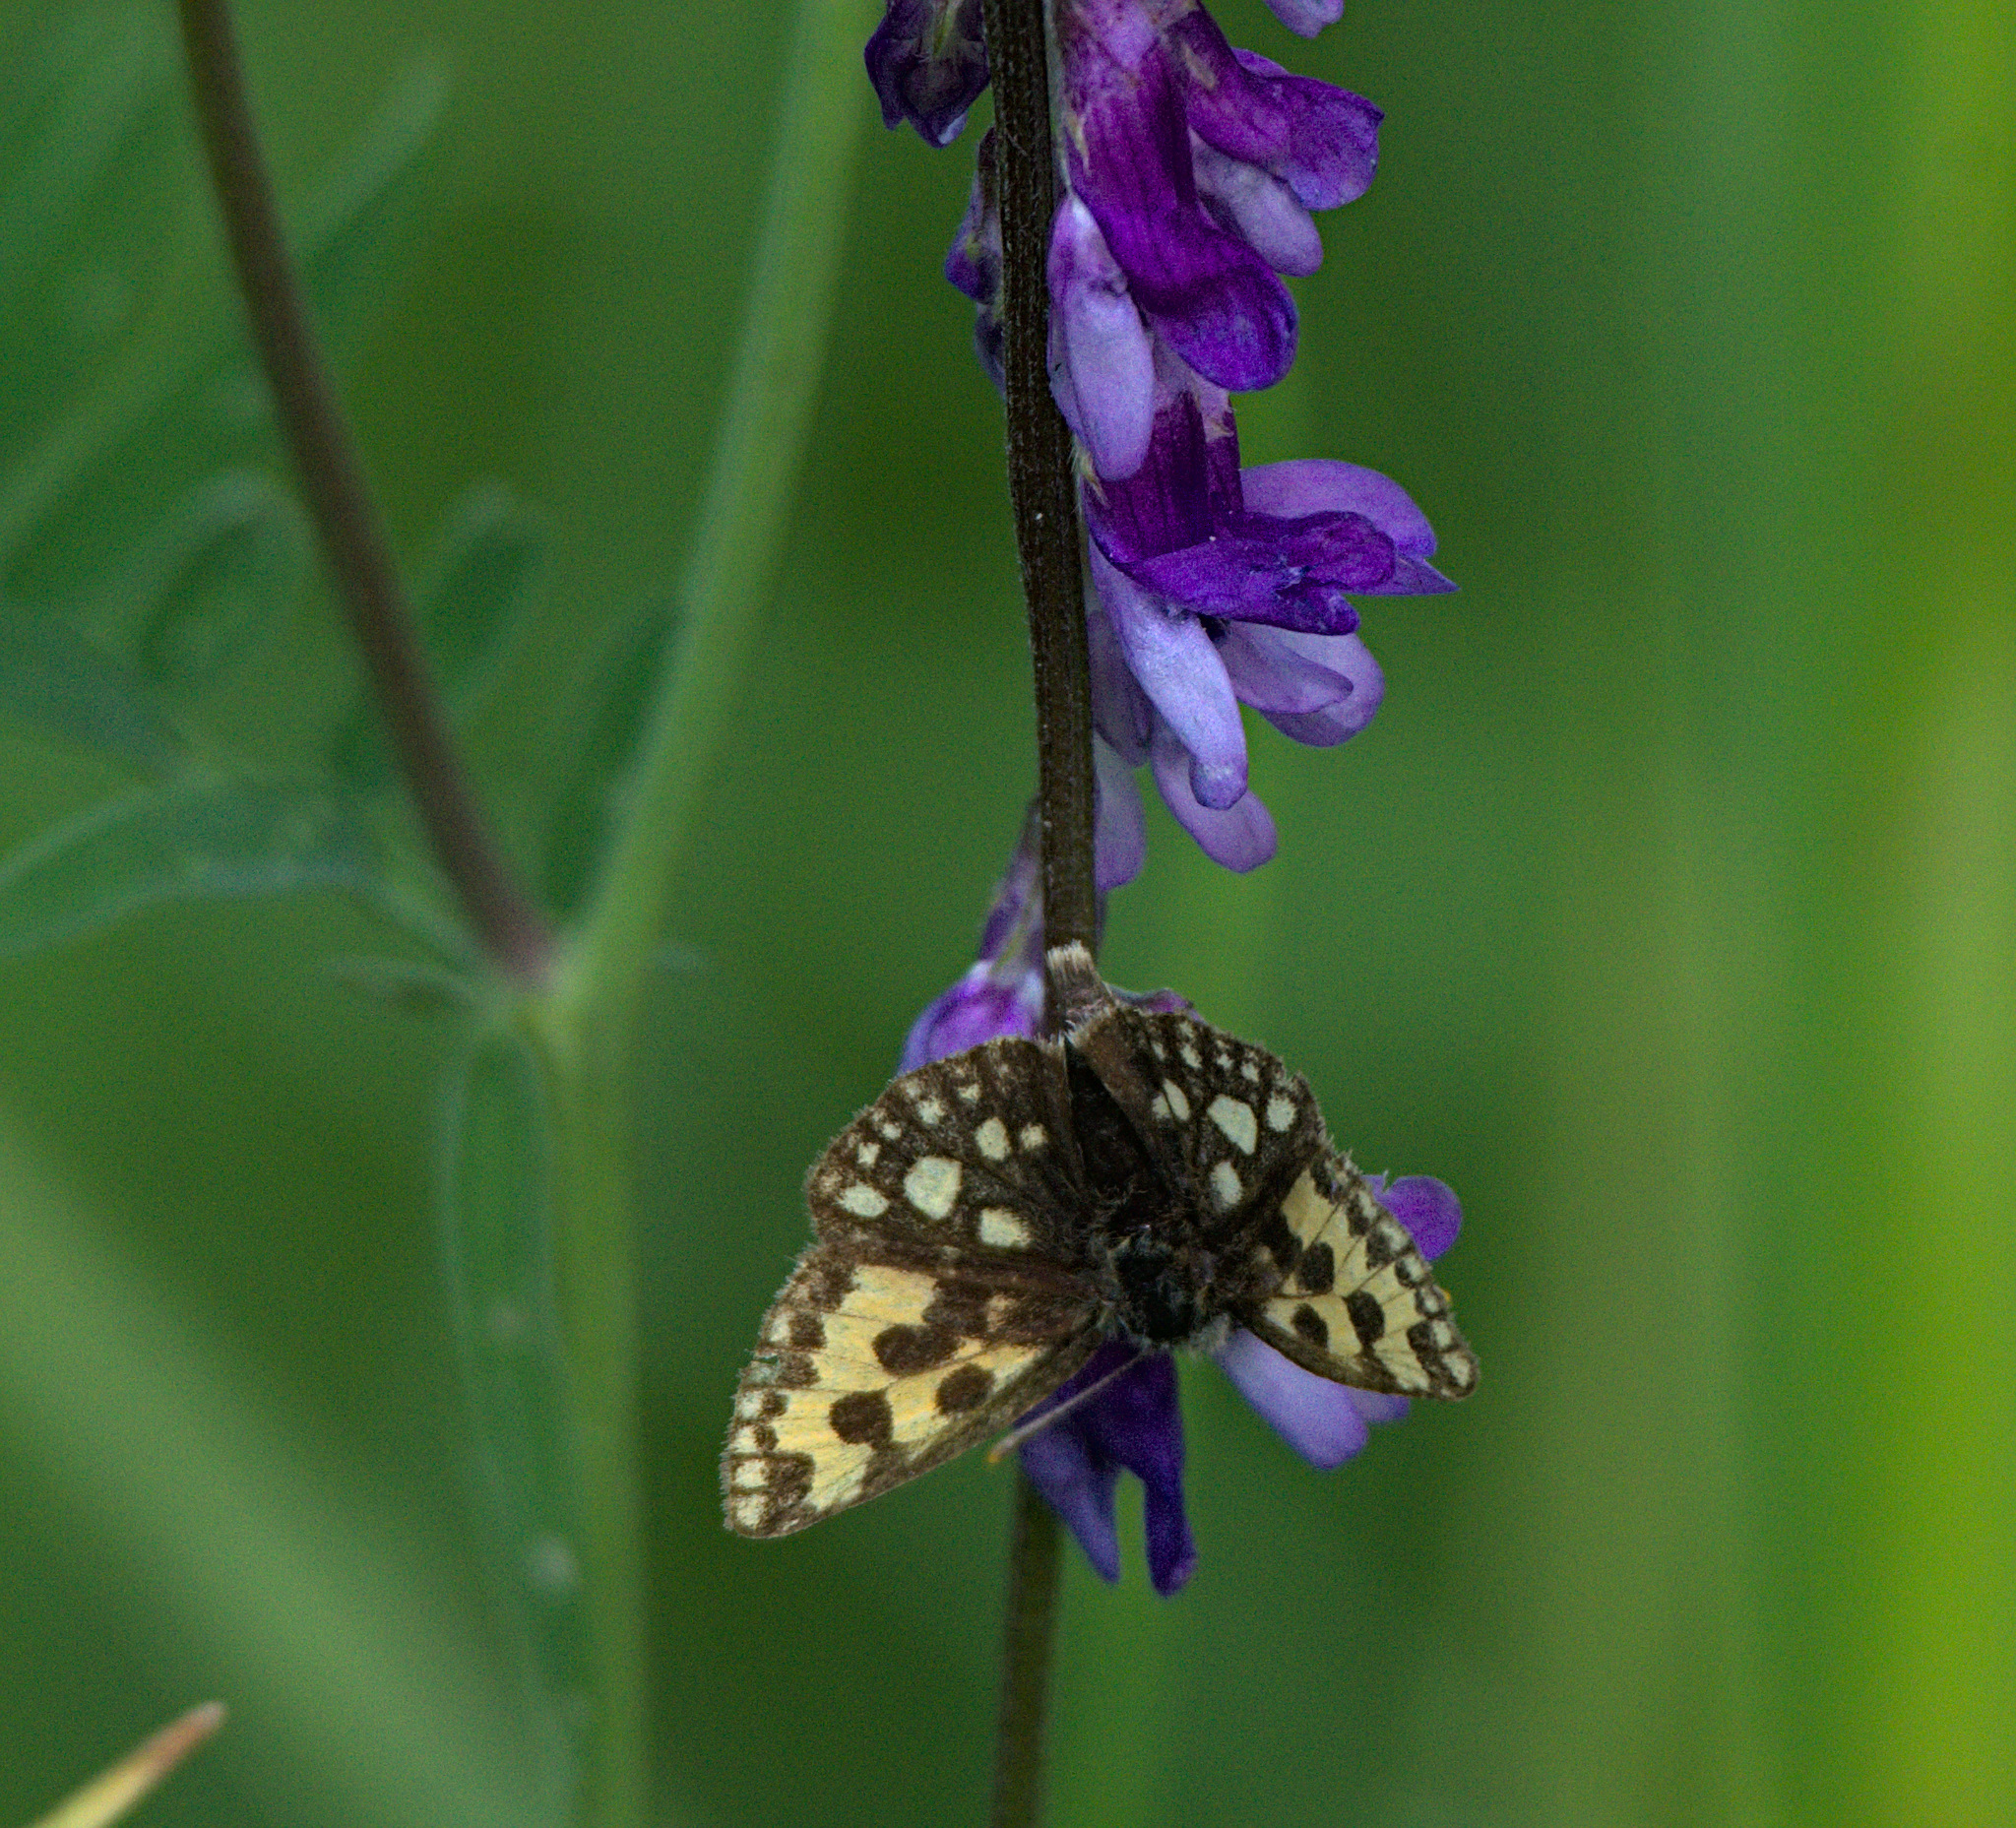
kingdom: Animalia
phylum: Arthropoda
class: Insecta
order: Lepidoptera
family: Hesperiidae
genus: Carterocephalus
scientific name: Carterocephalus silvicola
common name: Northern chequered skipper
